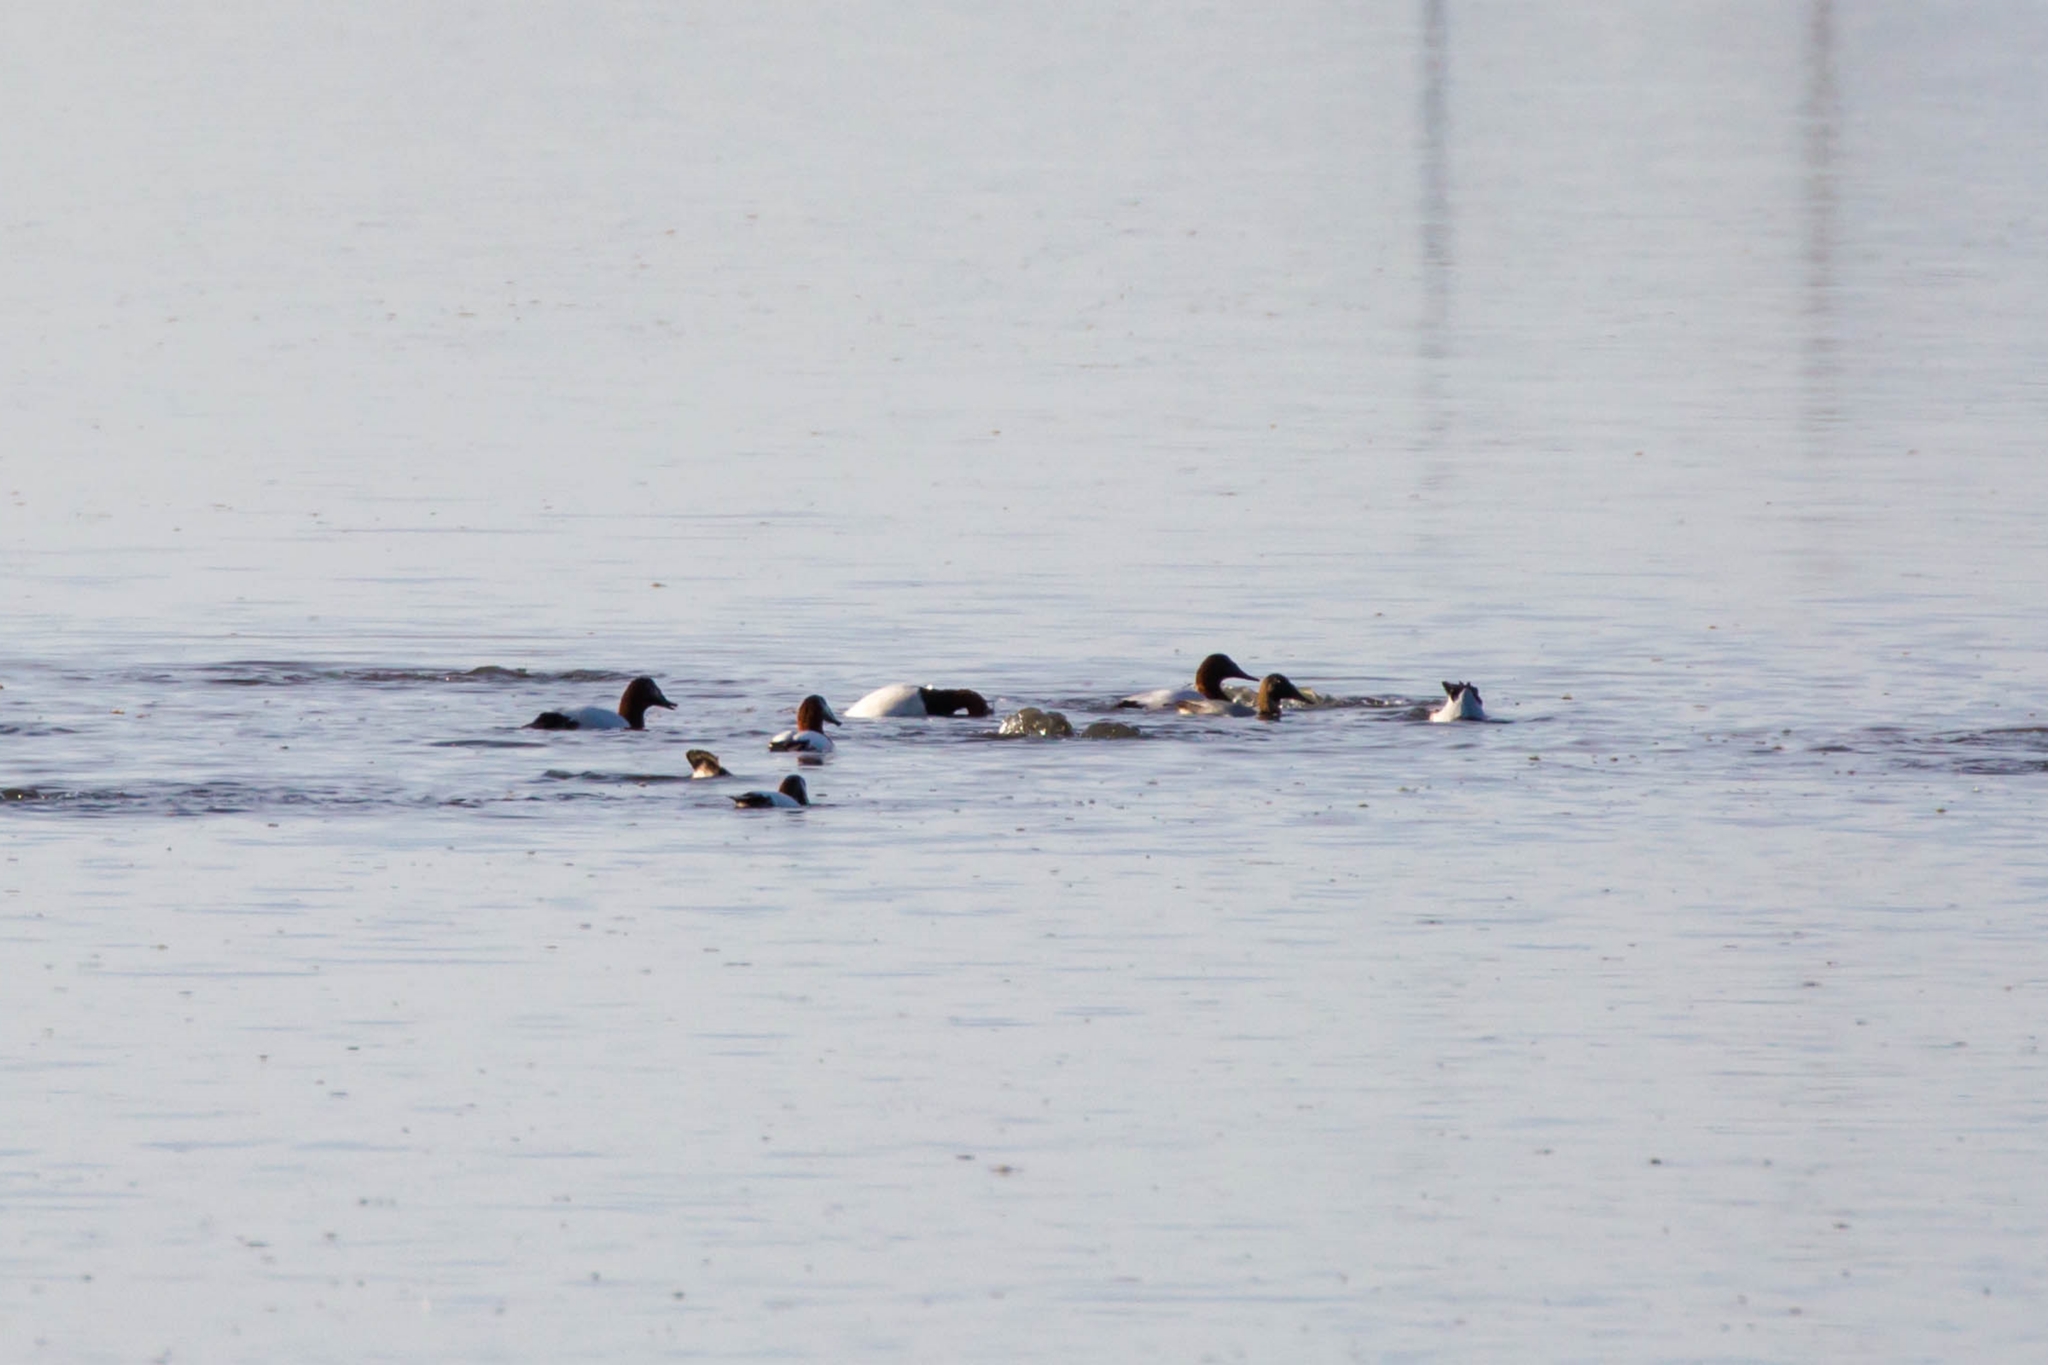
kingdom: Animalia
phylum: Chordata
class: Aves
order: Anseriformes
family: Anatidae
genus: Aythya
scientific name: Aythya valisineria
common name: Canvasback
